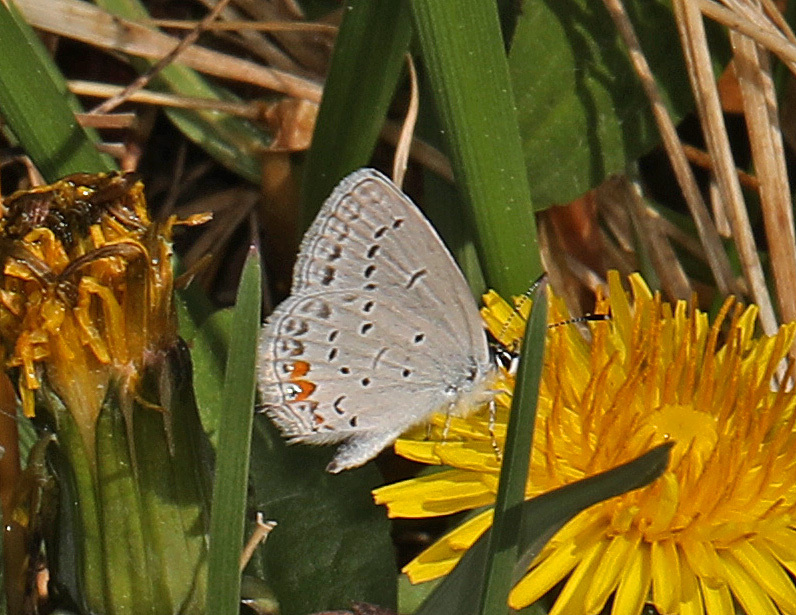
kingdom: Animalia
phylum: Arthropoda
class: Insecta
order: Lepidoptera
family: Lycaenidae
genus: Elkalyce
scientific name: Elkalyce comyntas
